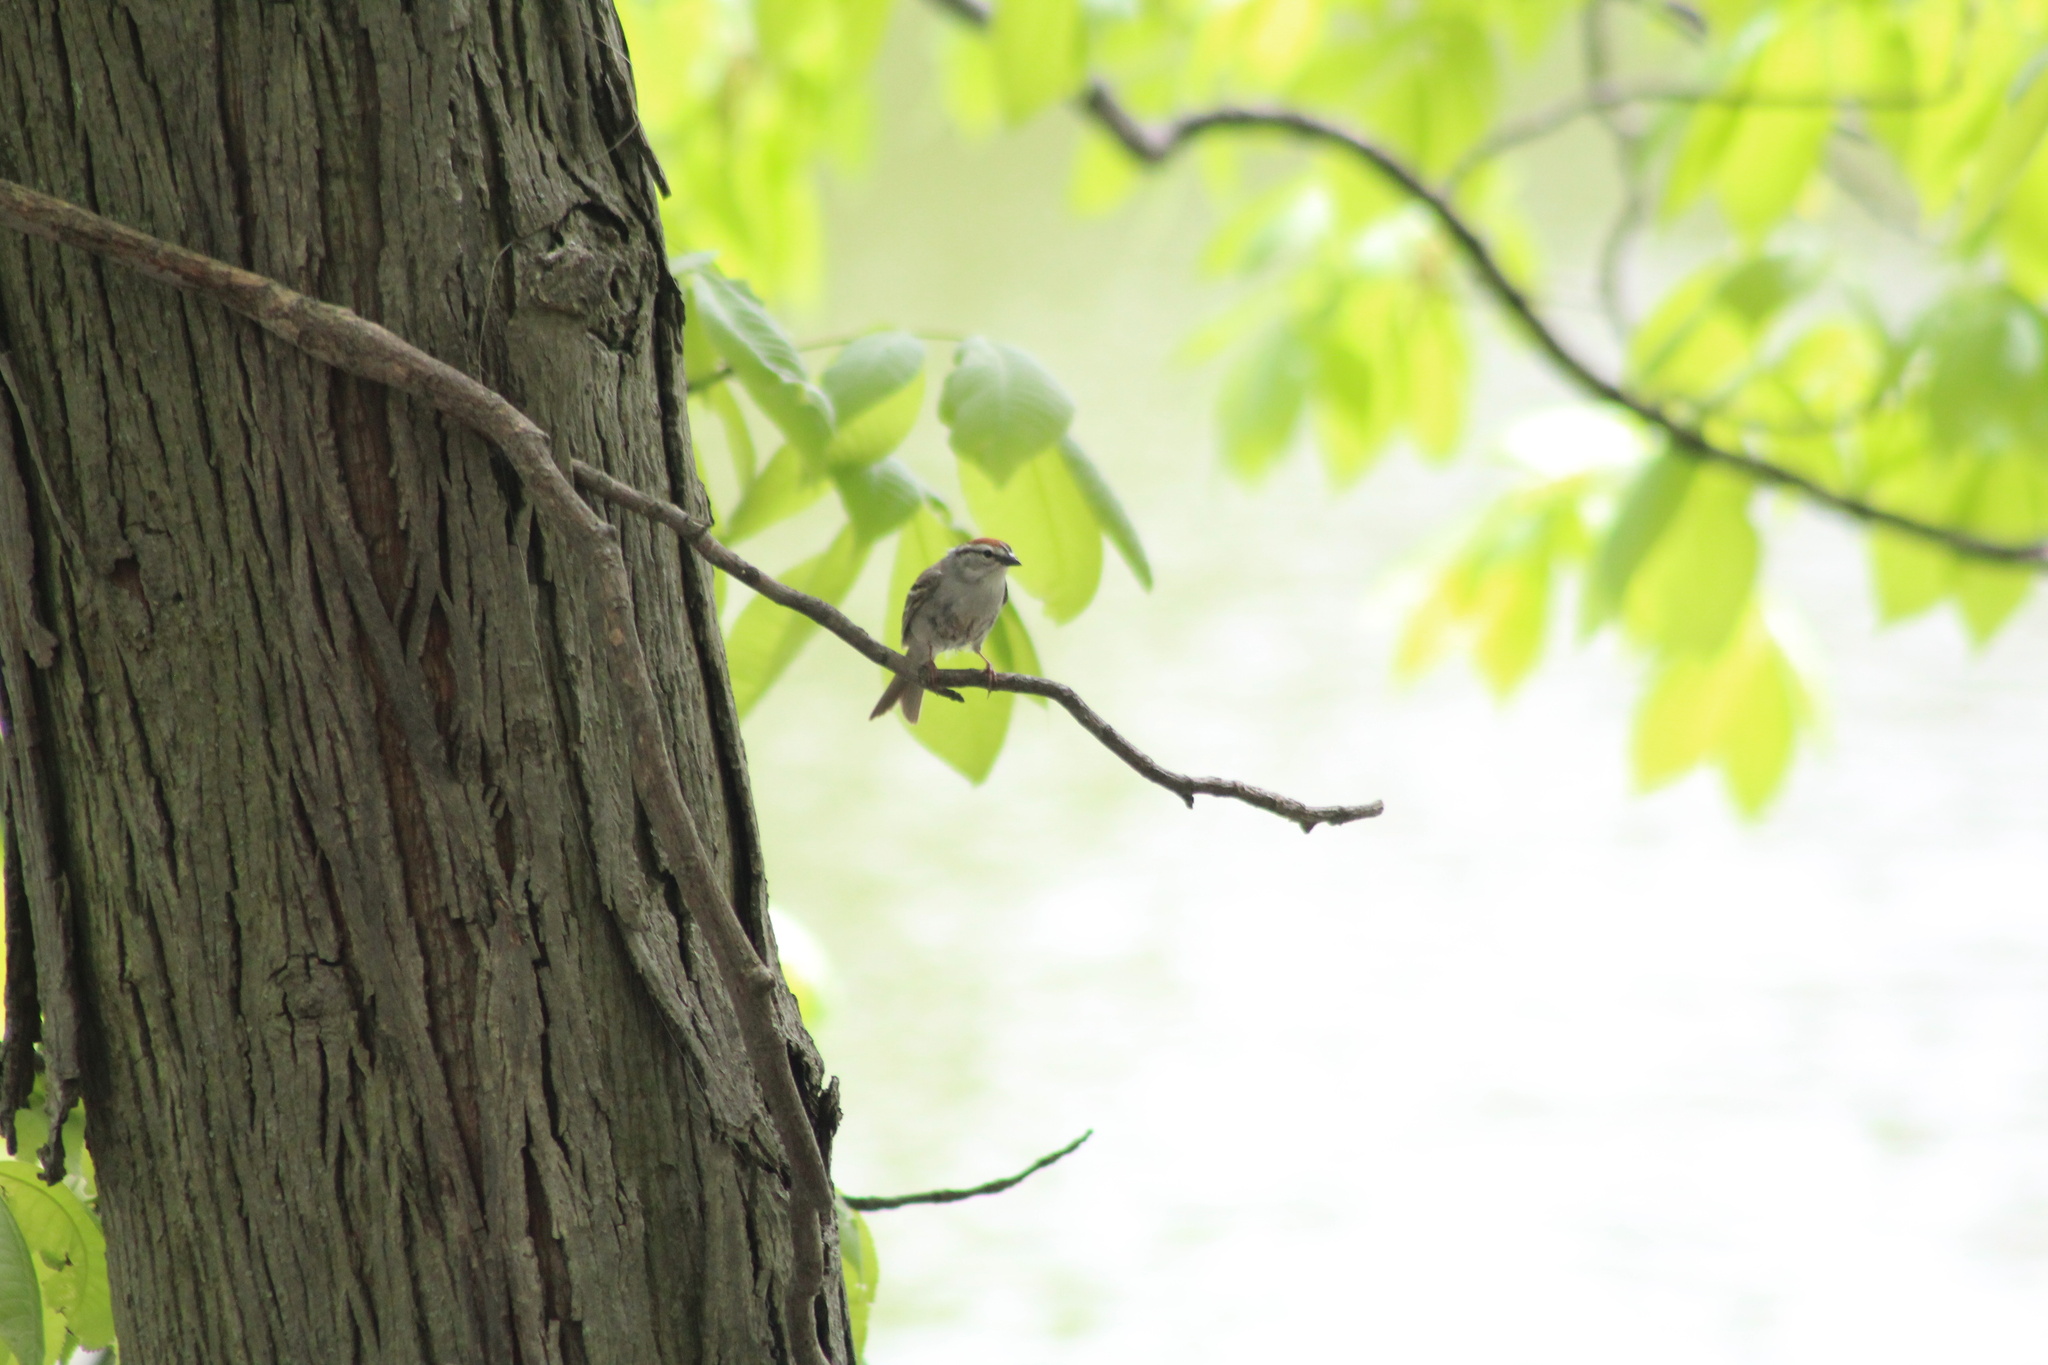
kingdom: Animalia
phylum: Chordata
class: Aves
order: Passeriformes
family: Passerellidae
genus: Spizella
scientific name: Spizella passerina
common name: Chipping sparrow
